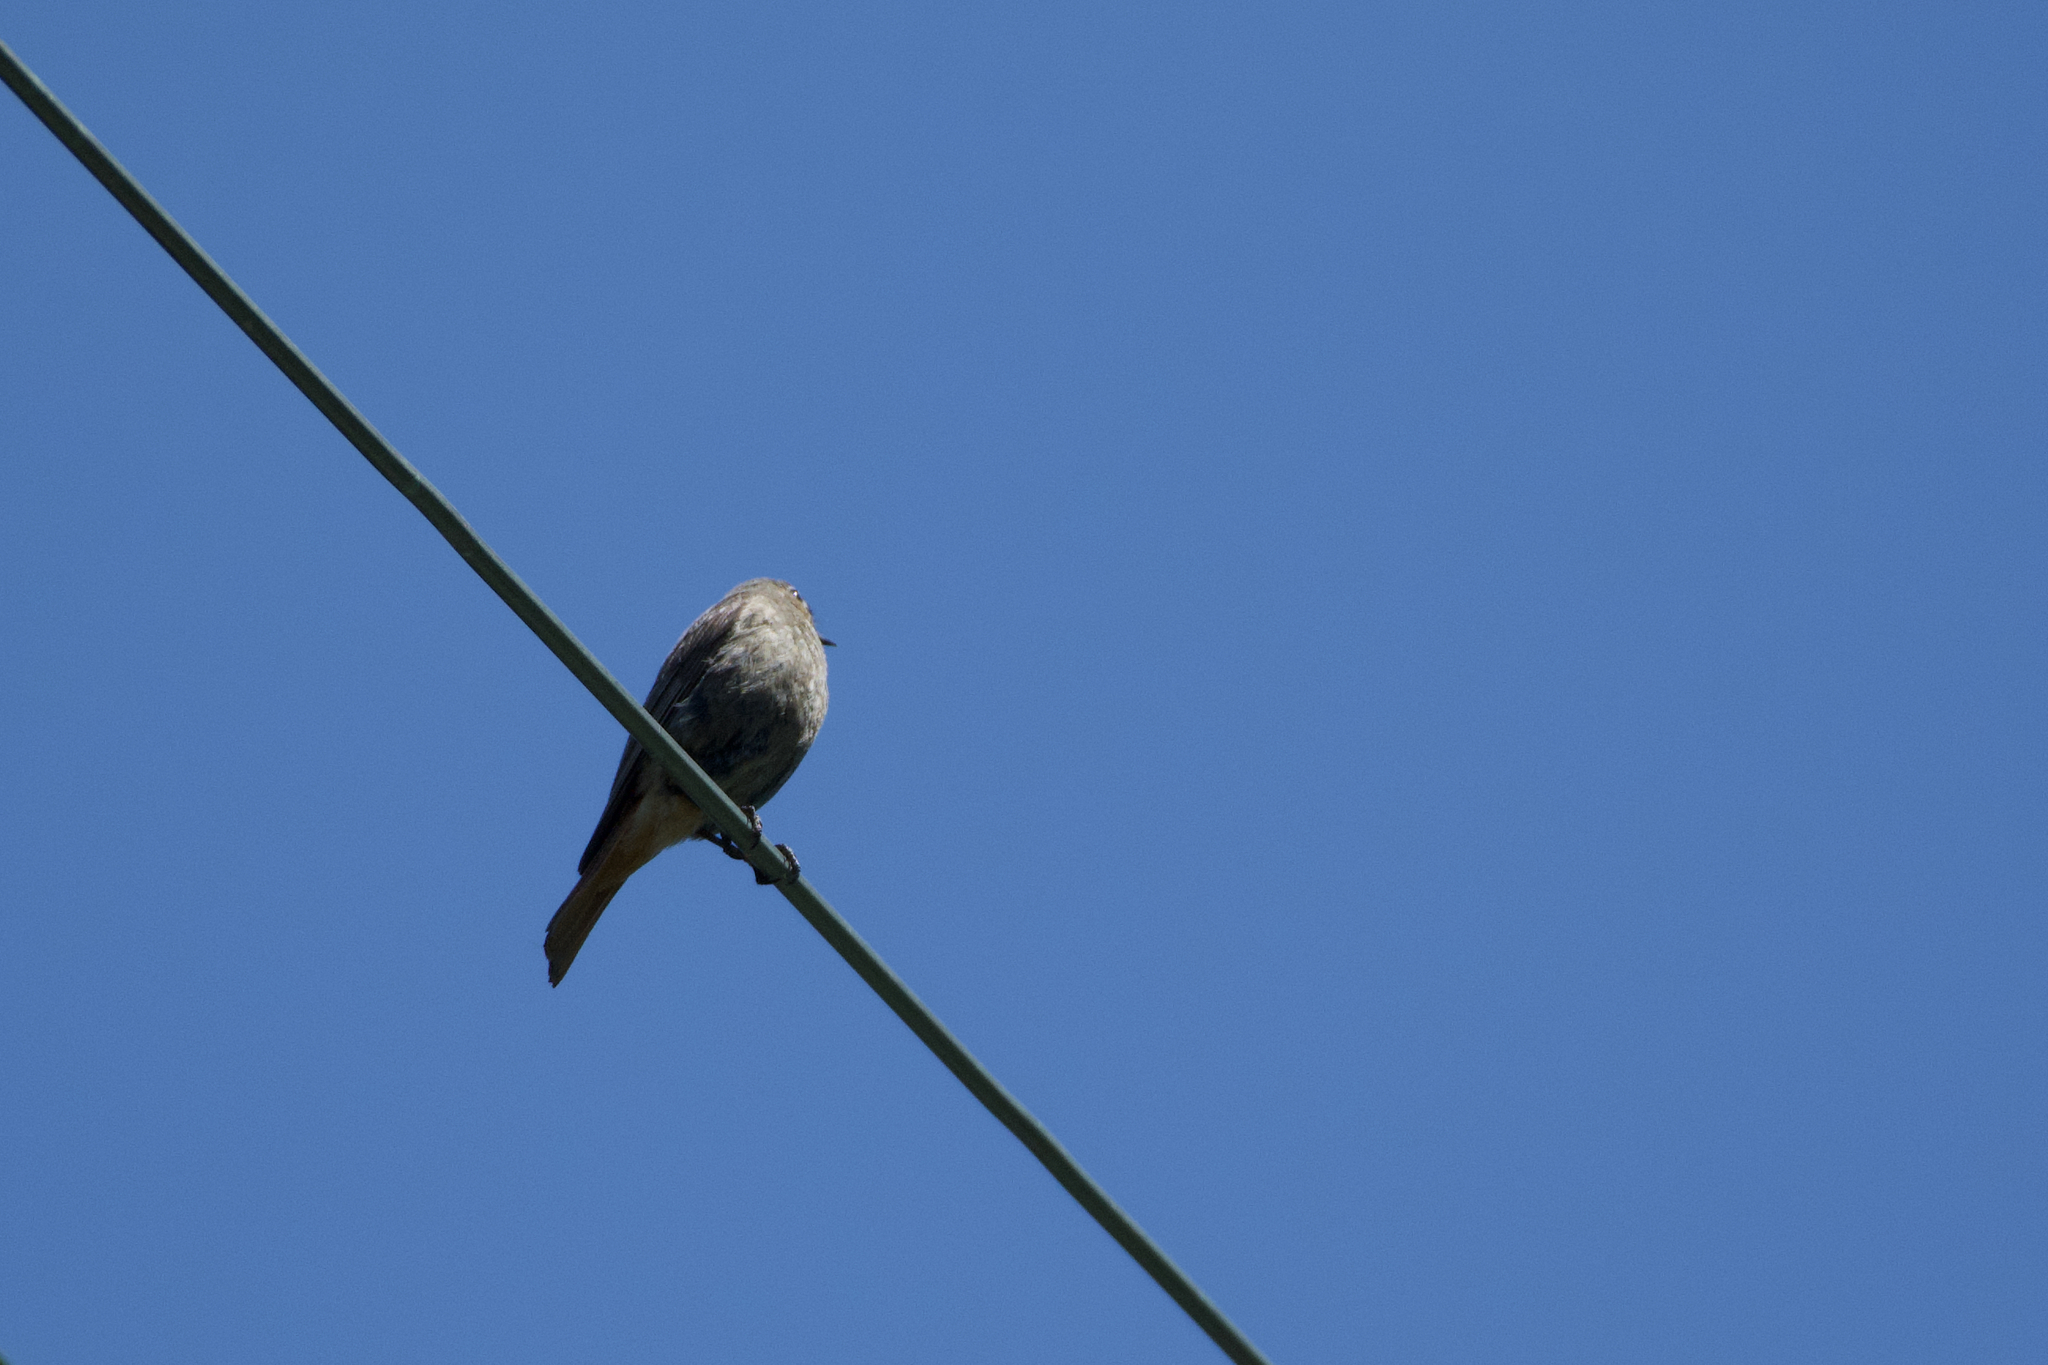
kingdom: Animalia
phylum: Chordata
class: Aves
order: Passeriformes
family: Muscicapidae
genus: Phoenicurus
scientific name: Phoenicurus ochruros
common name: Black redstart
